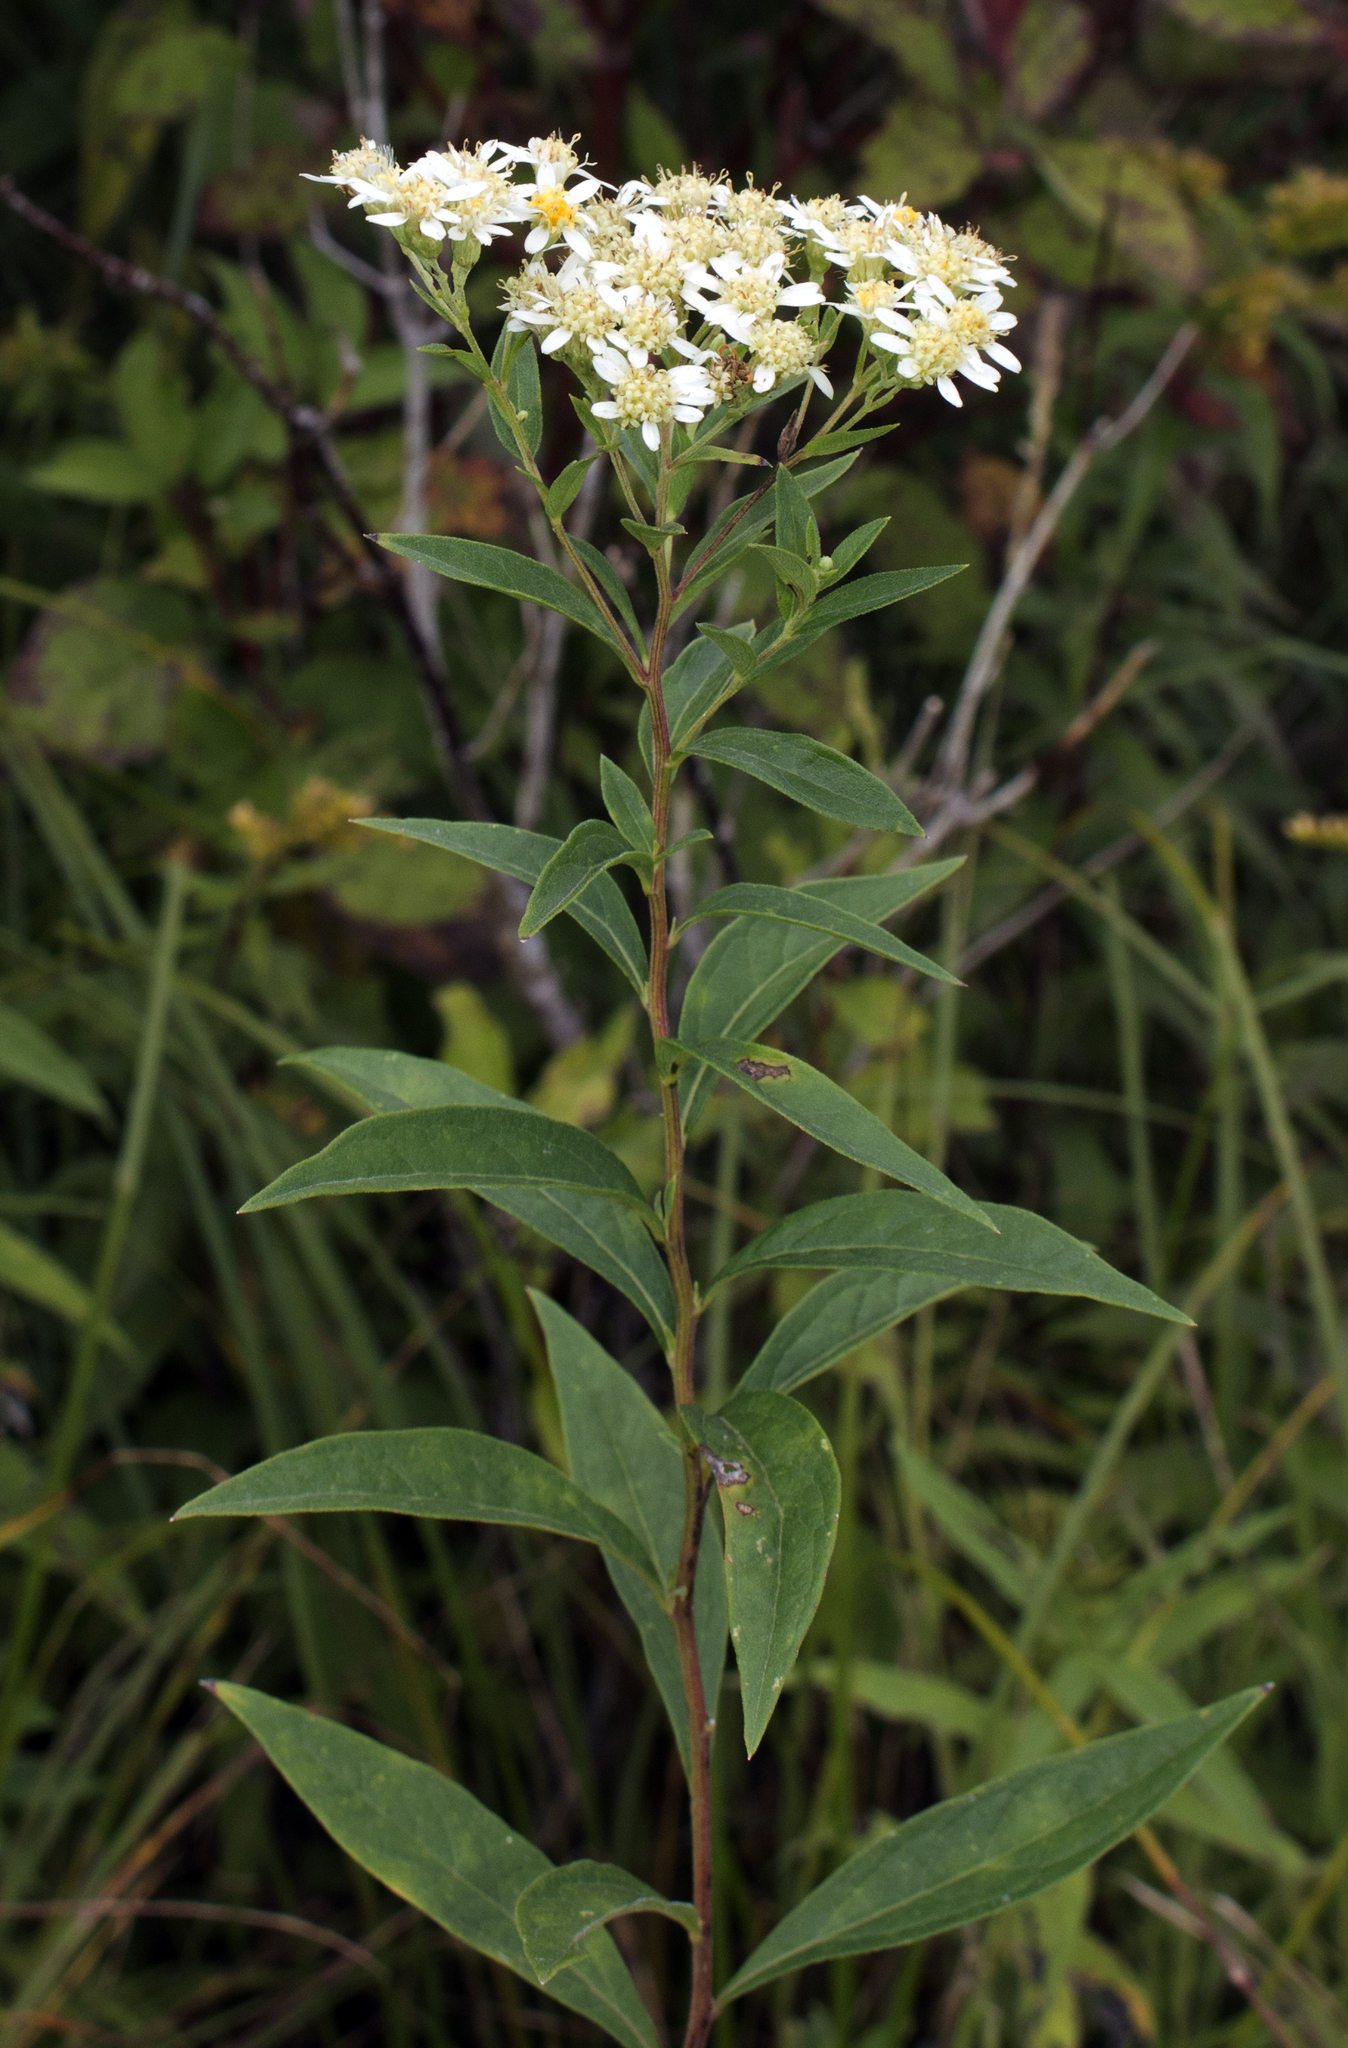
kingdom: Plantae
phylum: Tracheophyta
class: Magnoliopsida
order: Asterales
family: Asteraceae
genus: Doellingeria
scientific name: Doellingeria umbellata
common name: Flat-top white aster
